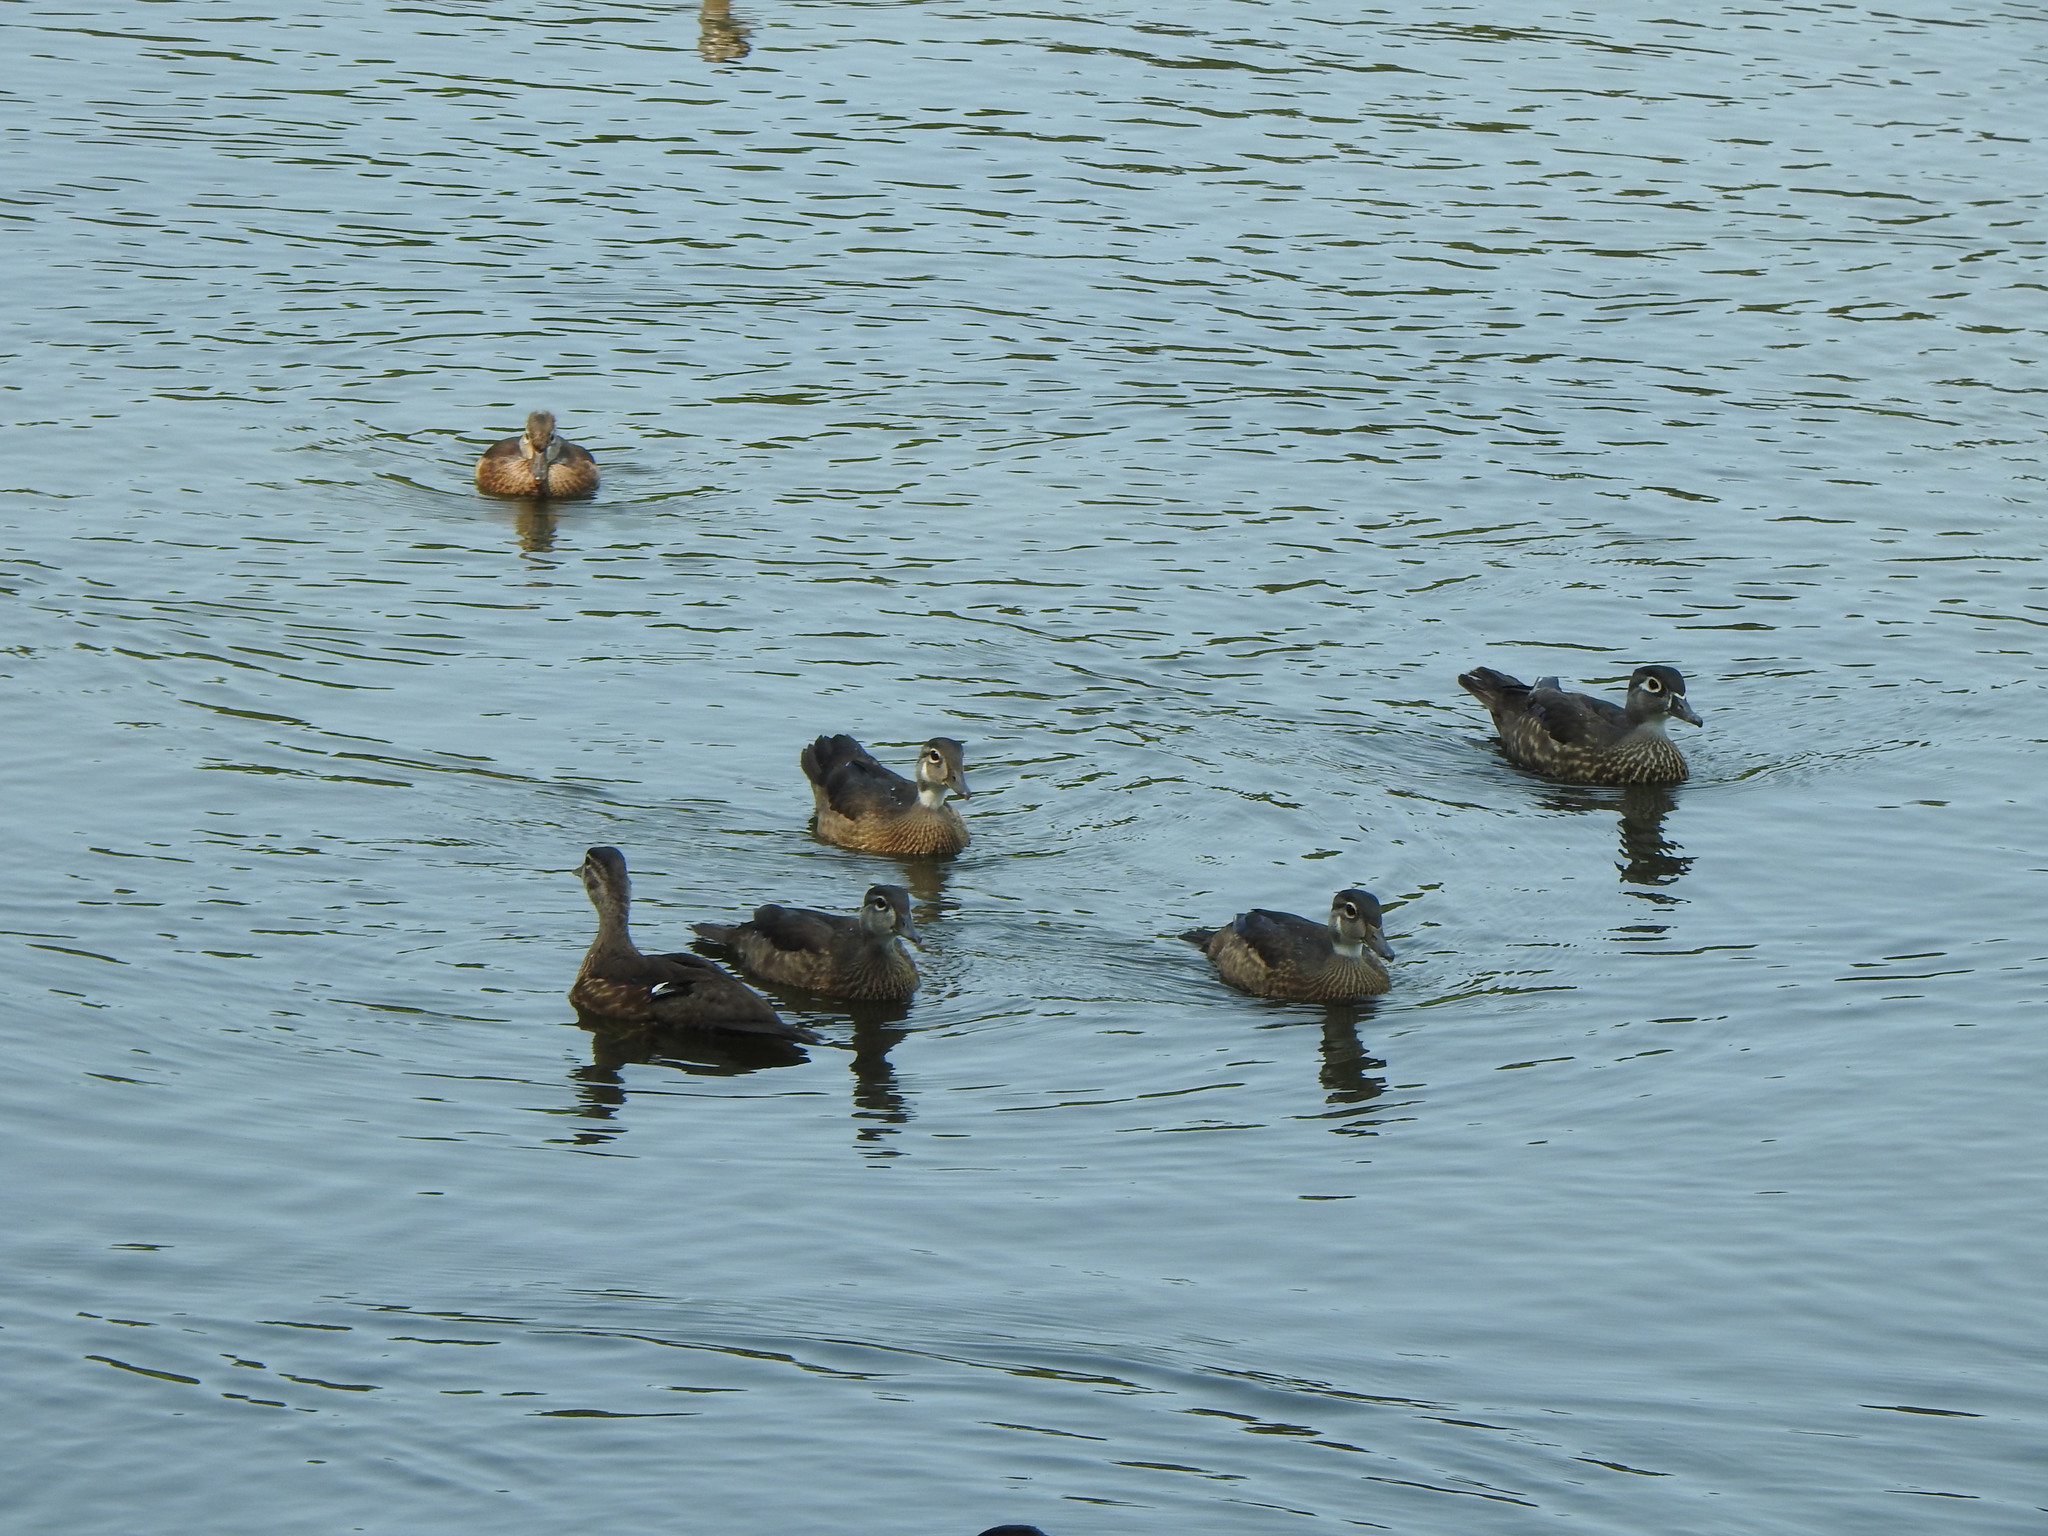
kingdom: Animalia
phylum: Chordata
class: Aves
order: Anseriformes
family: Anatidae
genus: Aix
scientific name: Aix sponsa
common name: Wood duck
